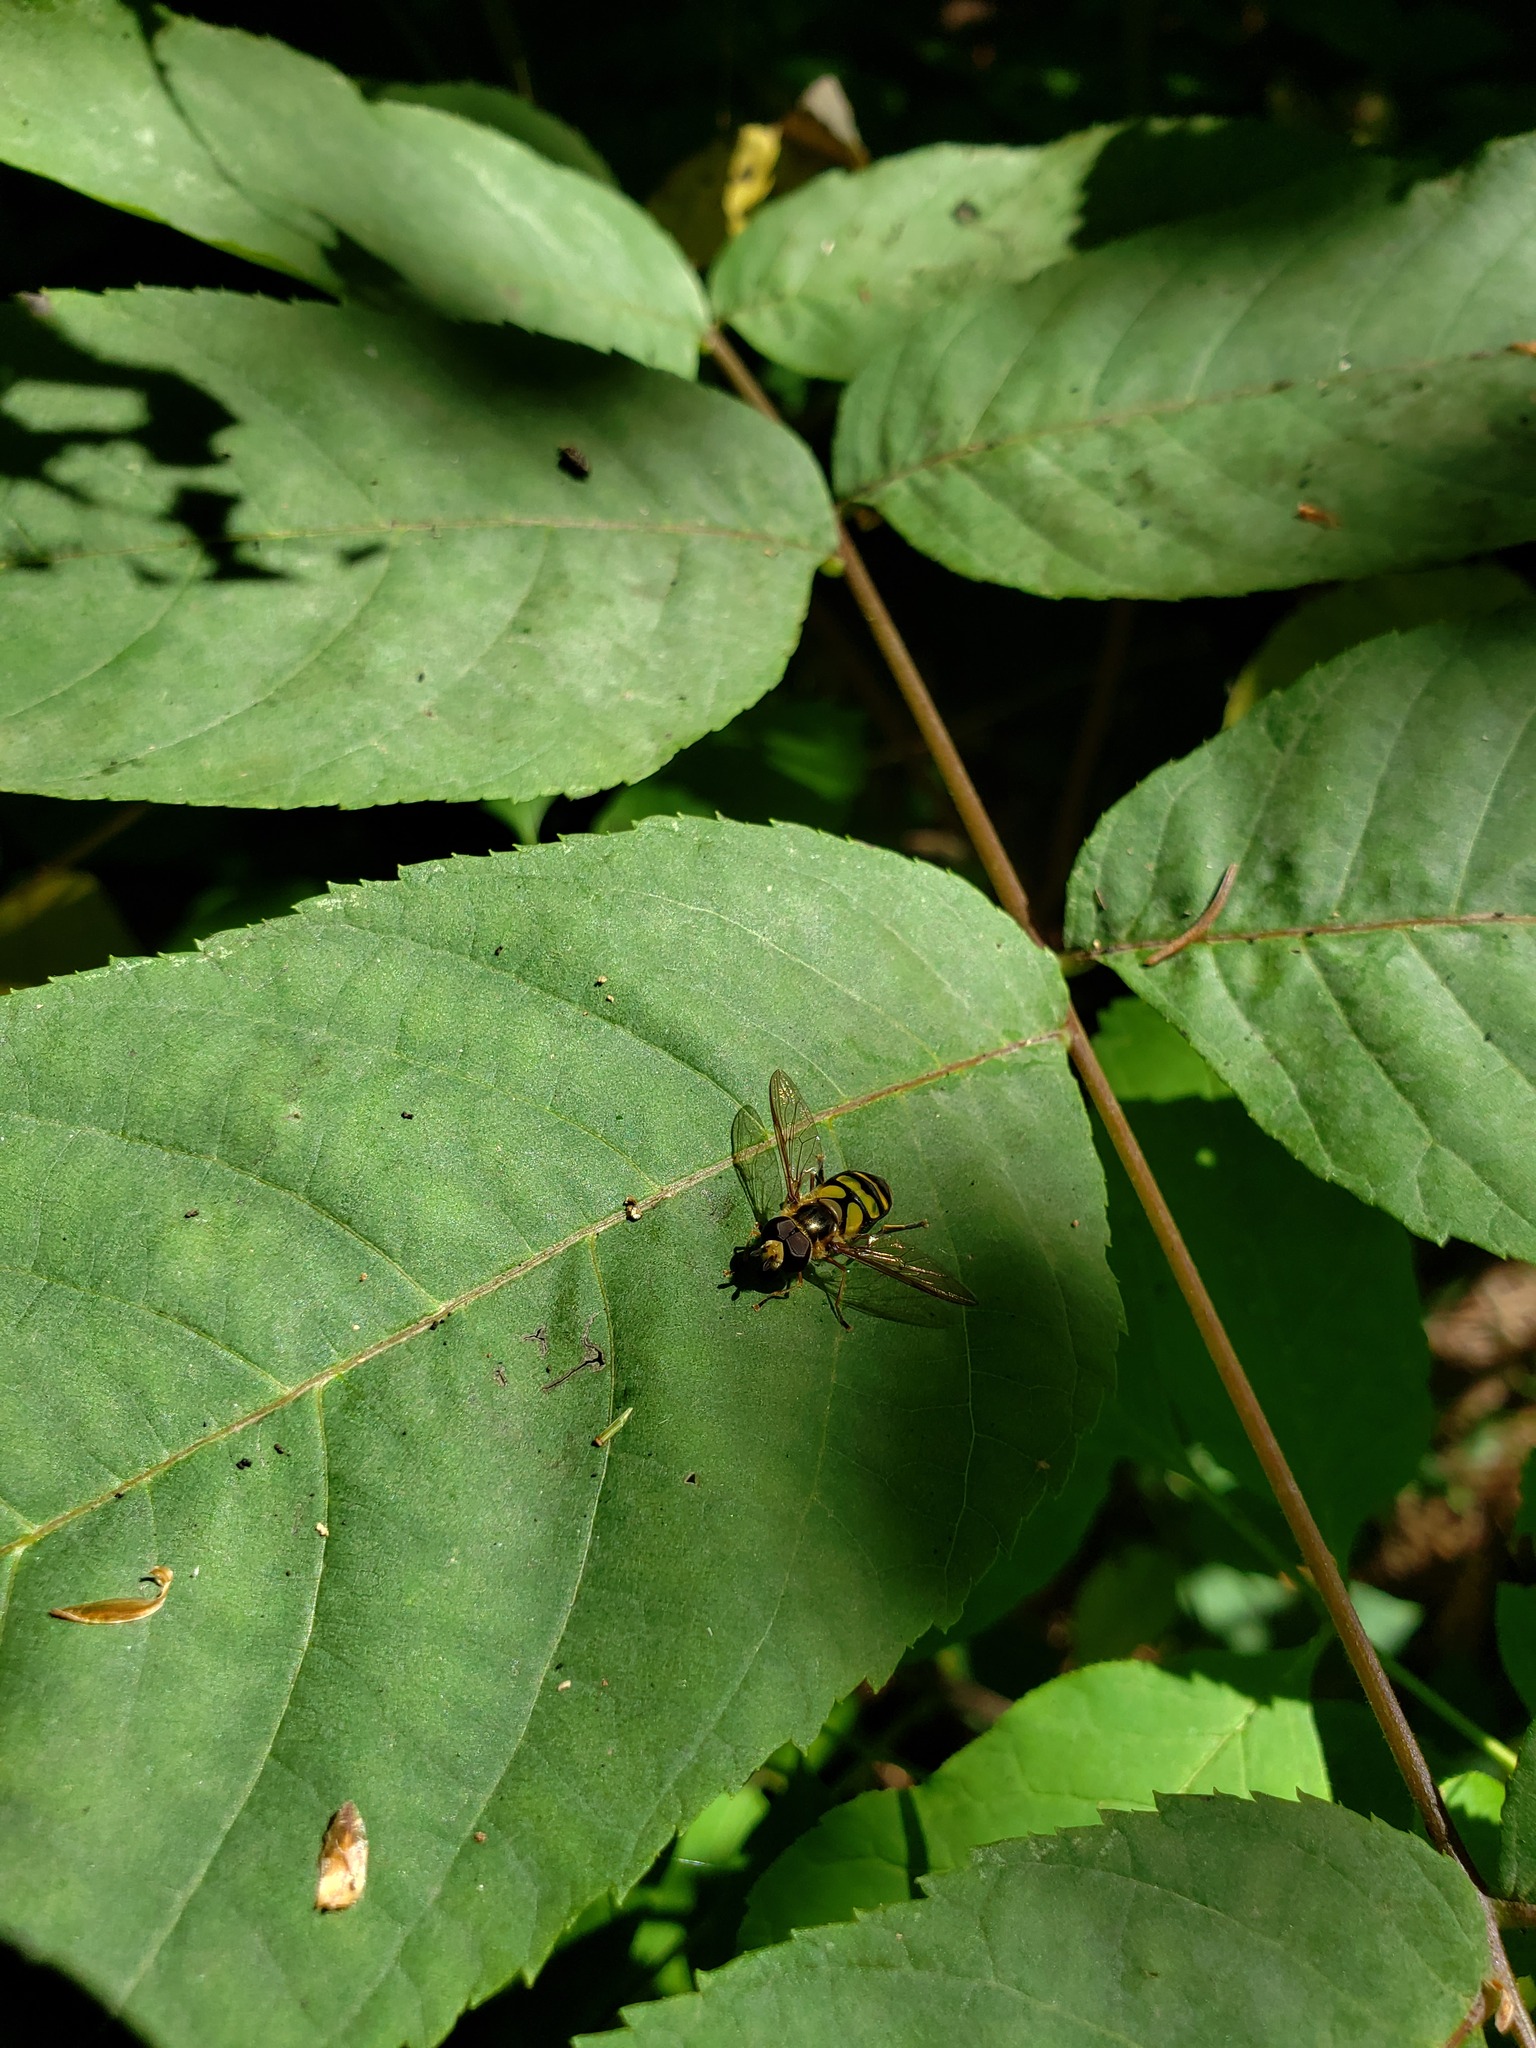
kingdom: Animalia
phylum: Arthropoda
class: Insecta
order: Diptera
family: Syrphidae
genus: Didea
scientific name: Didea fuscipes
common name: Undivided lucent
